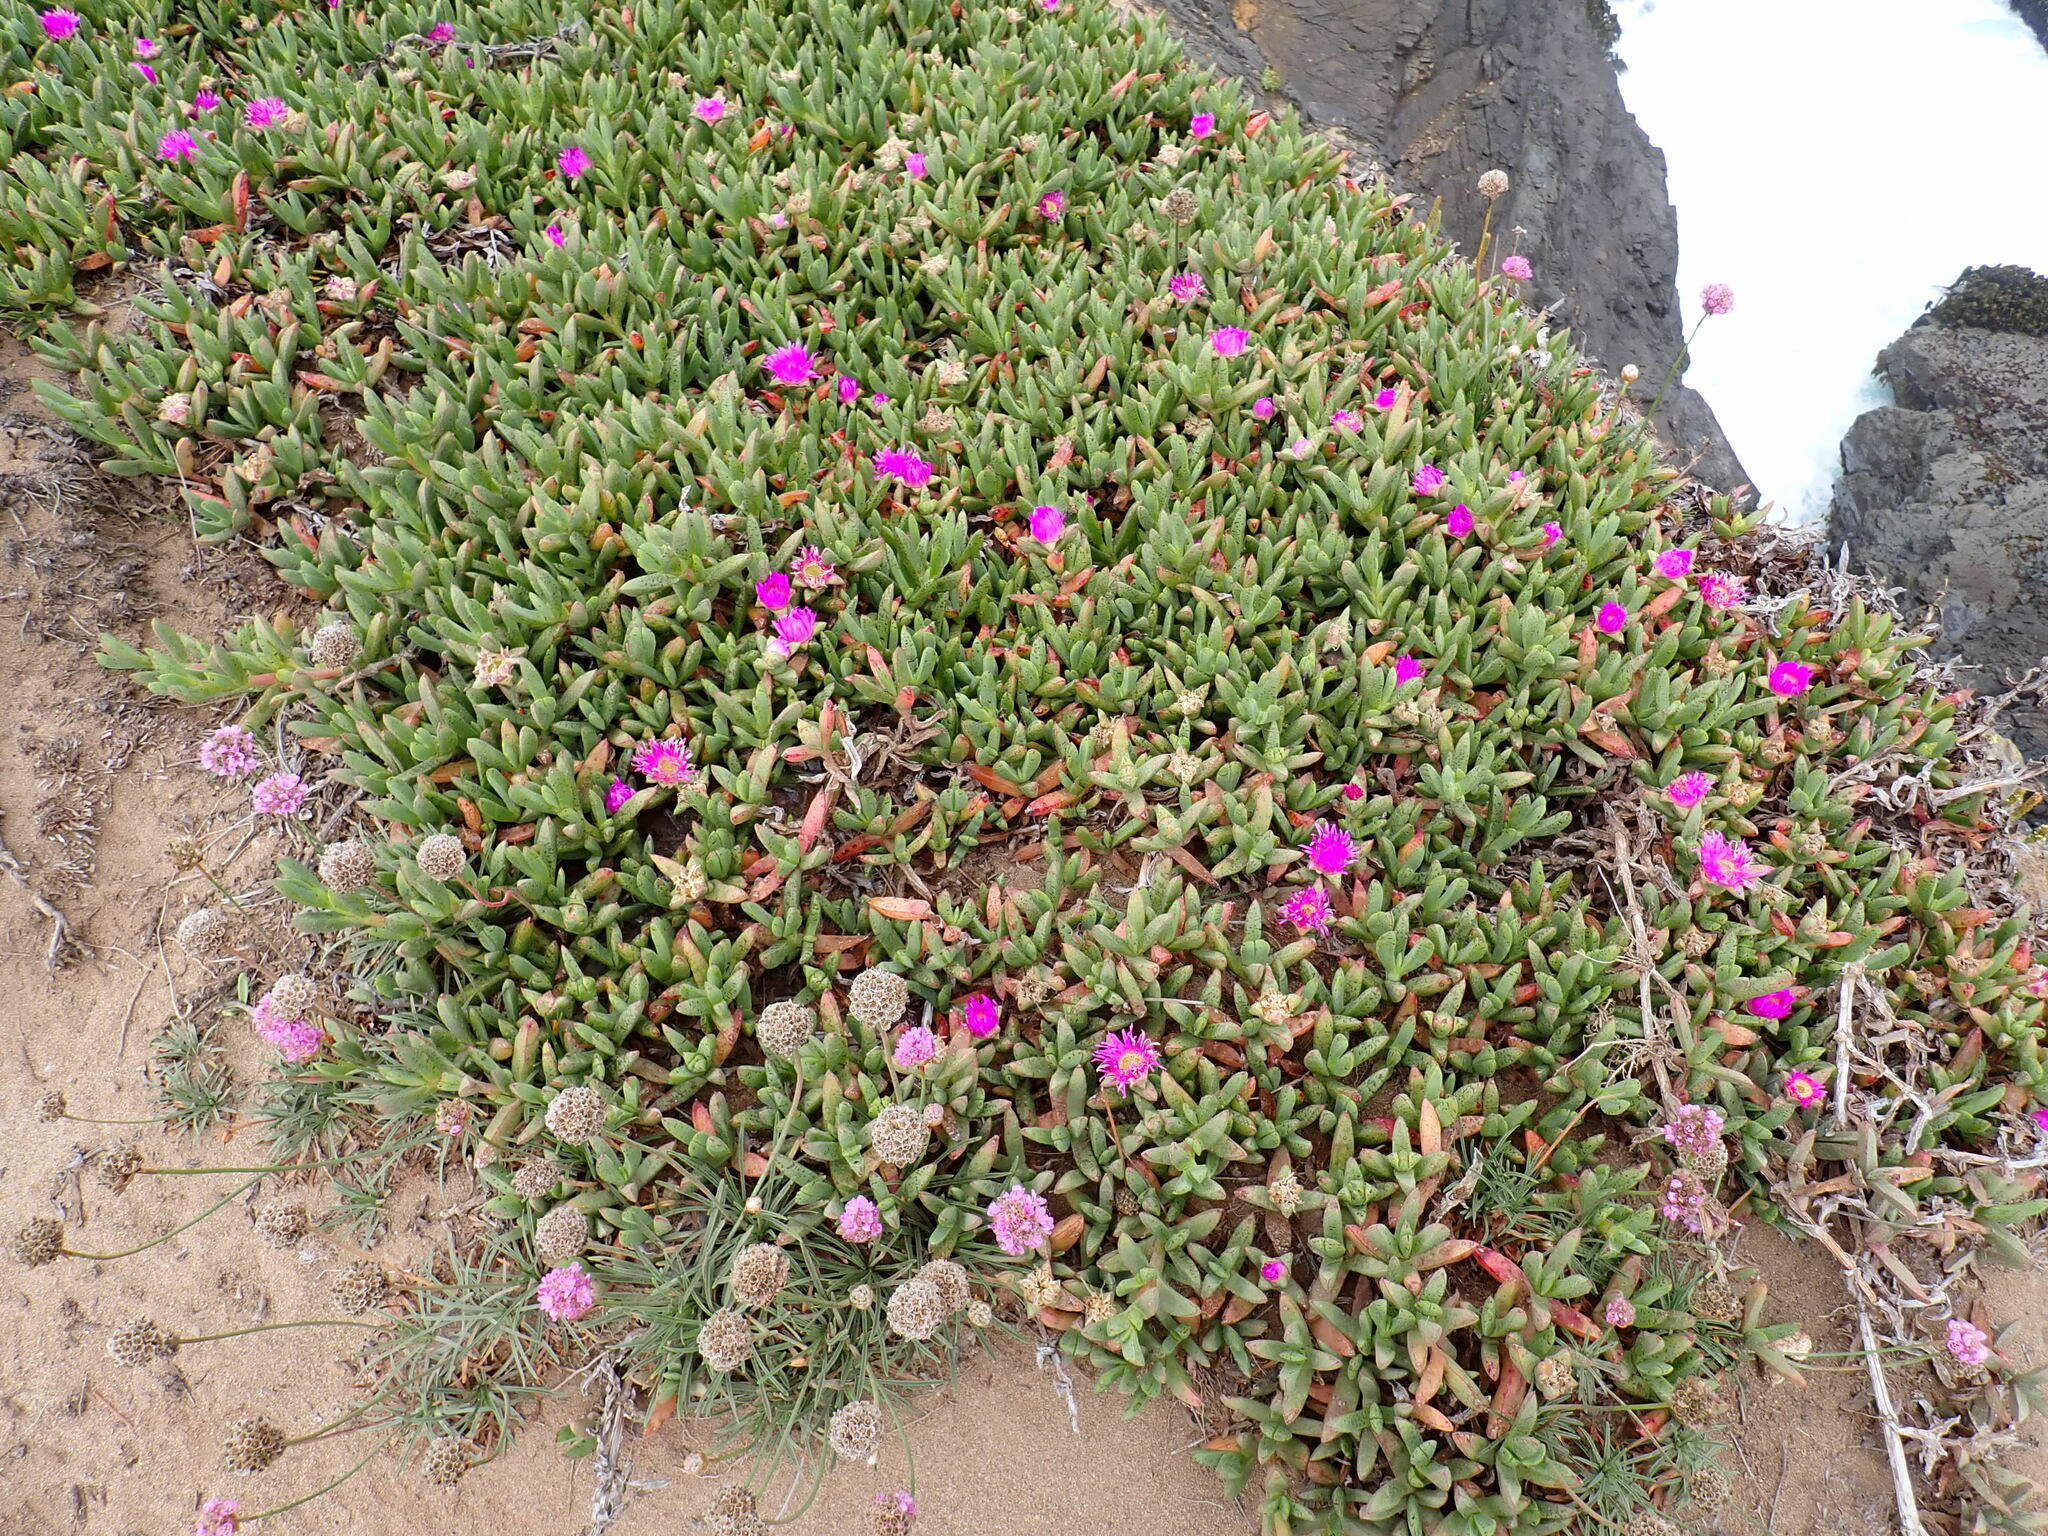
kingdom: Plantae
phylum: Tracheophyta
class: Magnoliopsida
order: Caryophyllales
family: Aizoaceae
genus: Carpobrotus
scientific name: Carpobrotus chilensis
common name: Sea fig
